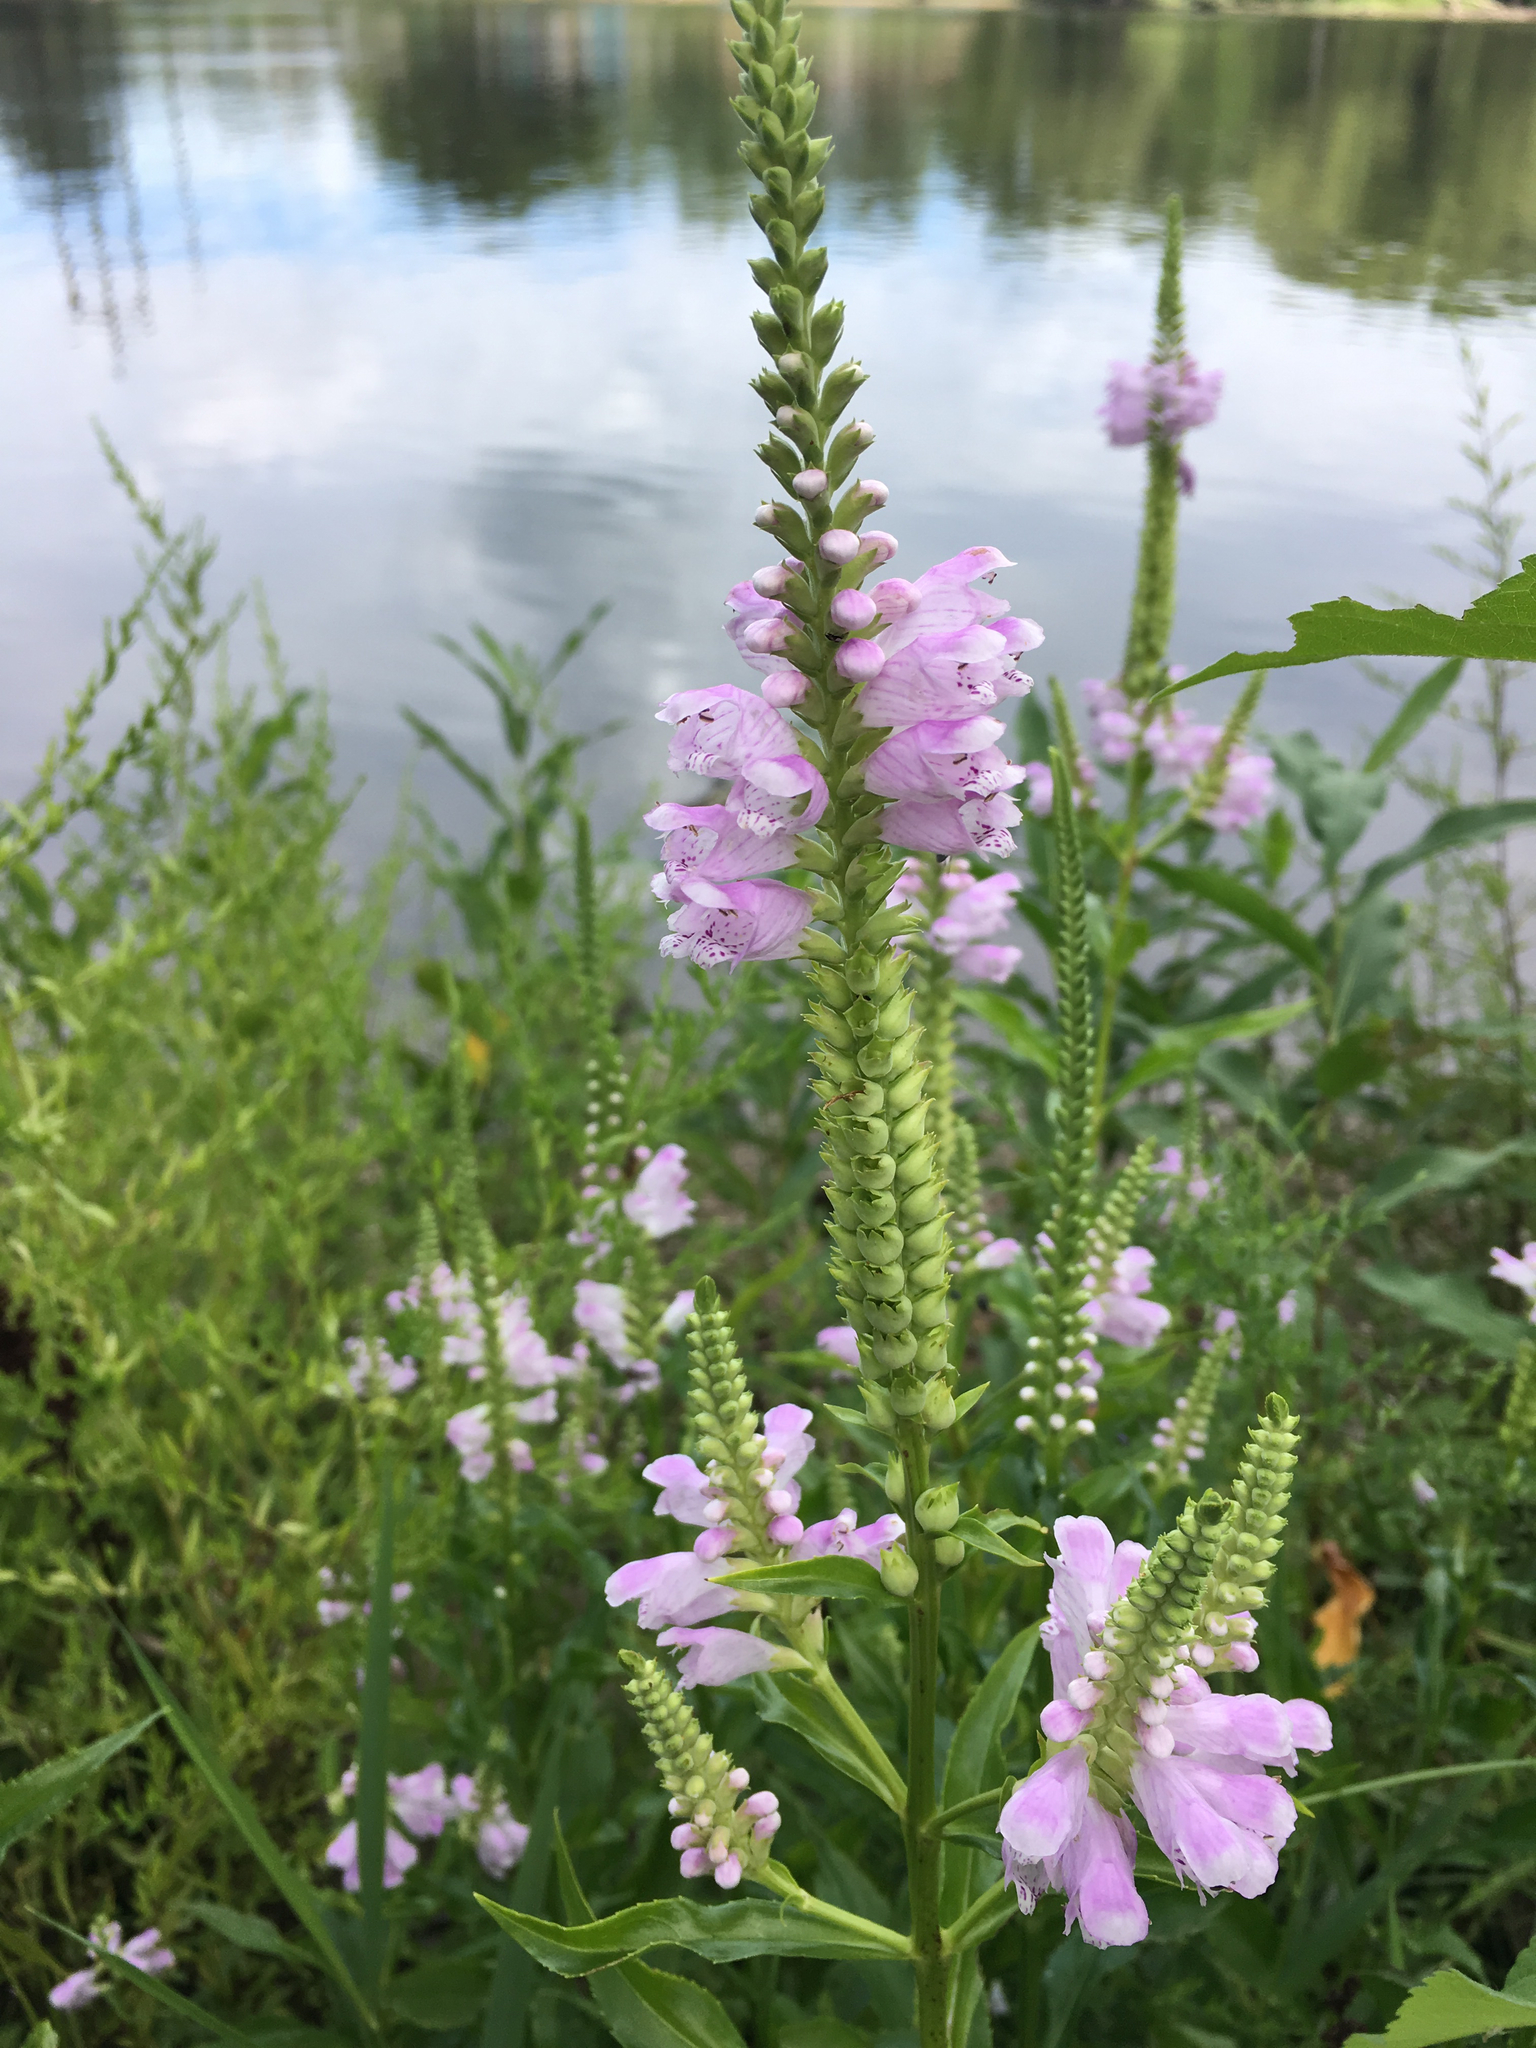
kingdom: Plantae
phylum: Tracheophyta
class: Magnoliopsida
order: Lamiales
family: Lamiaceae
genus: Physostegia
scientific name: Physostegia virginiana
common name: Obedient-plant
